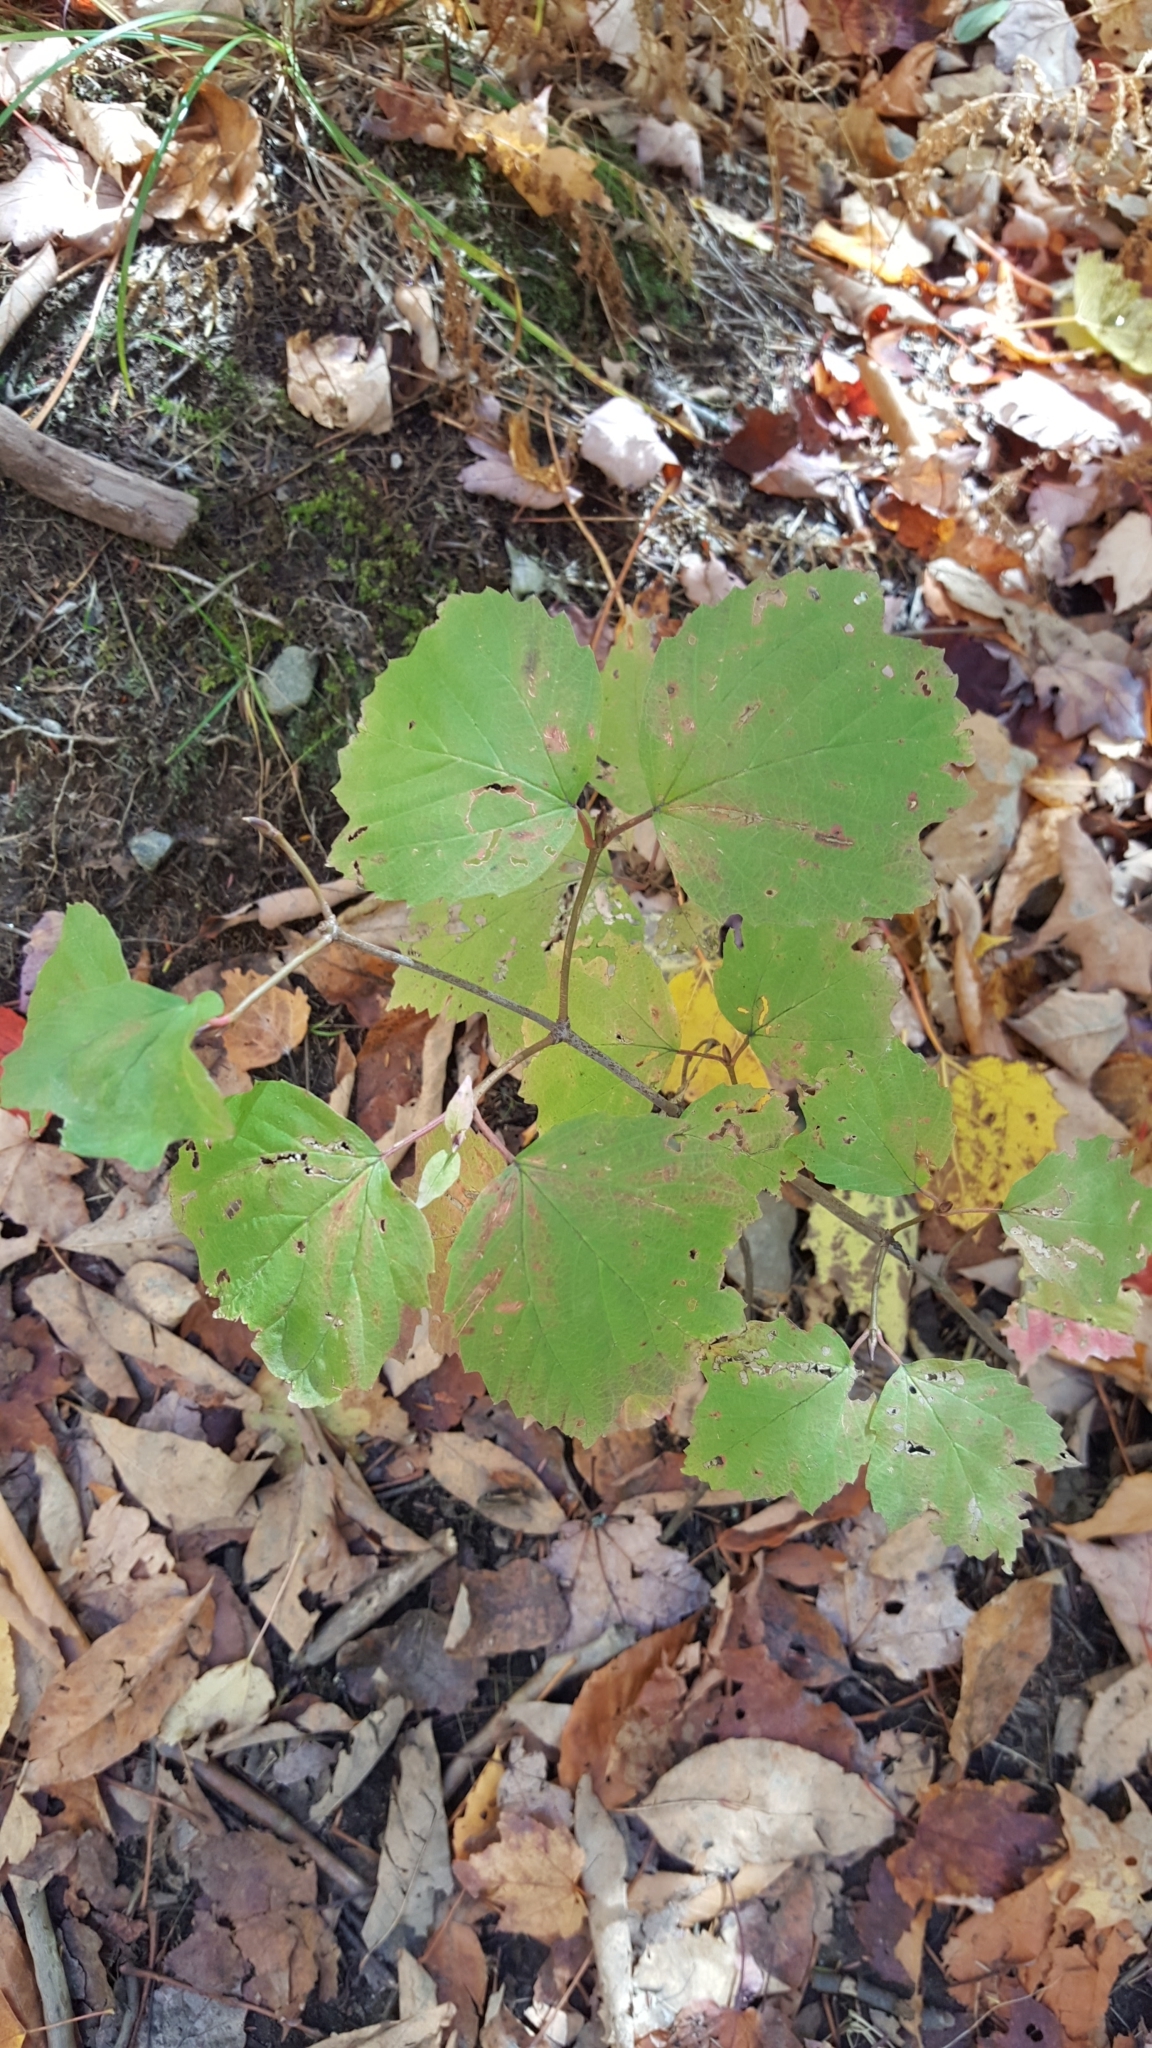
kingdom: Plantae
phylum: Tracheophyta
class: Magnoliopsida
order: Dipsacales
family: Viburnaceae
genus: Viburnum
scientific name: Viburnum acerifolium
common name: Dockmackie
